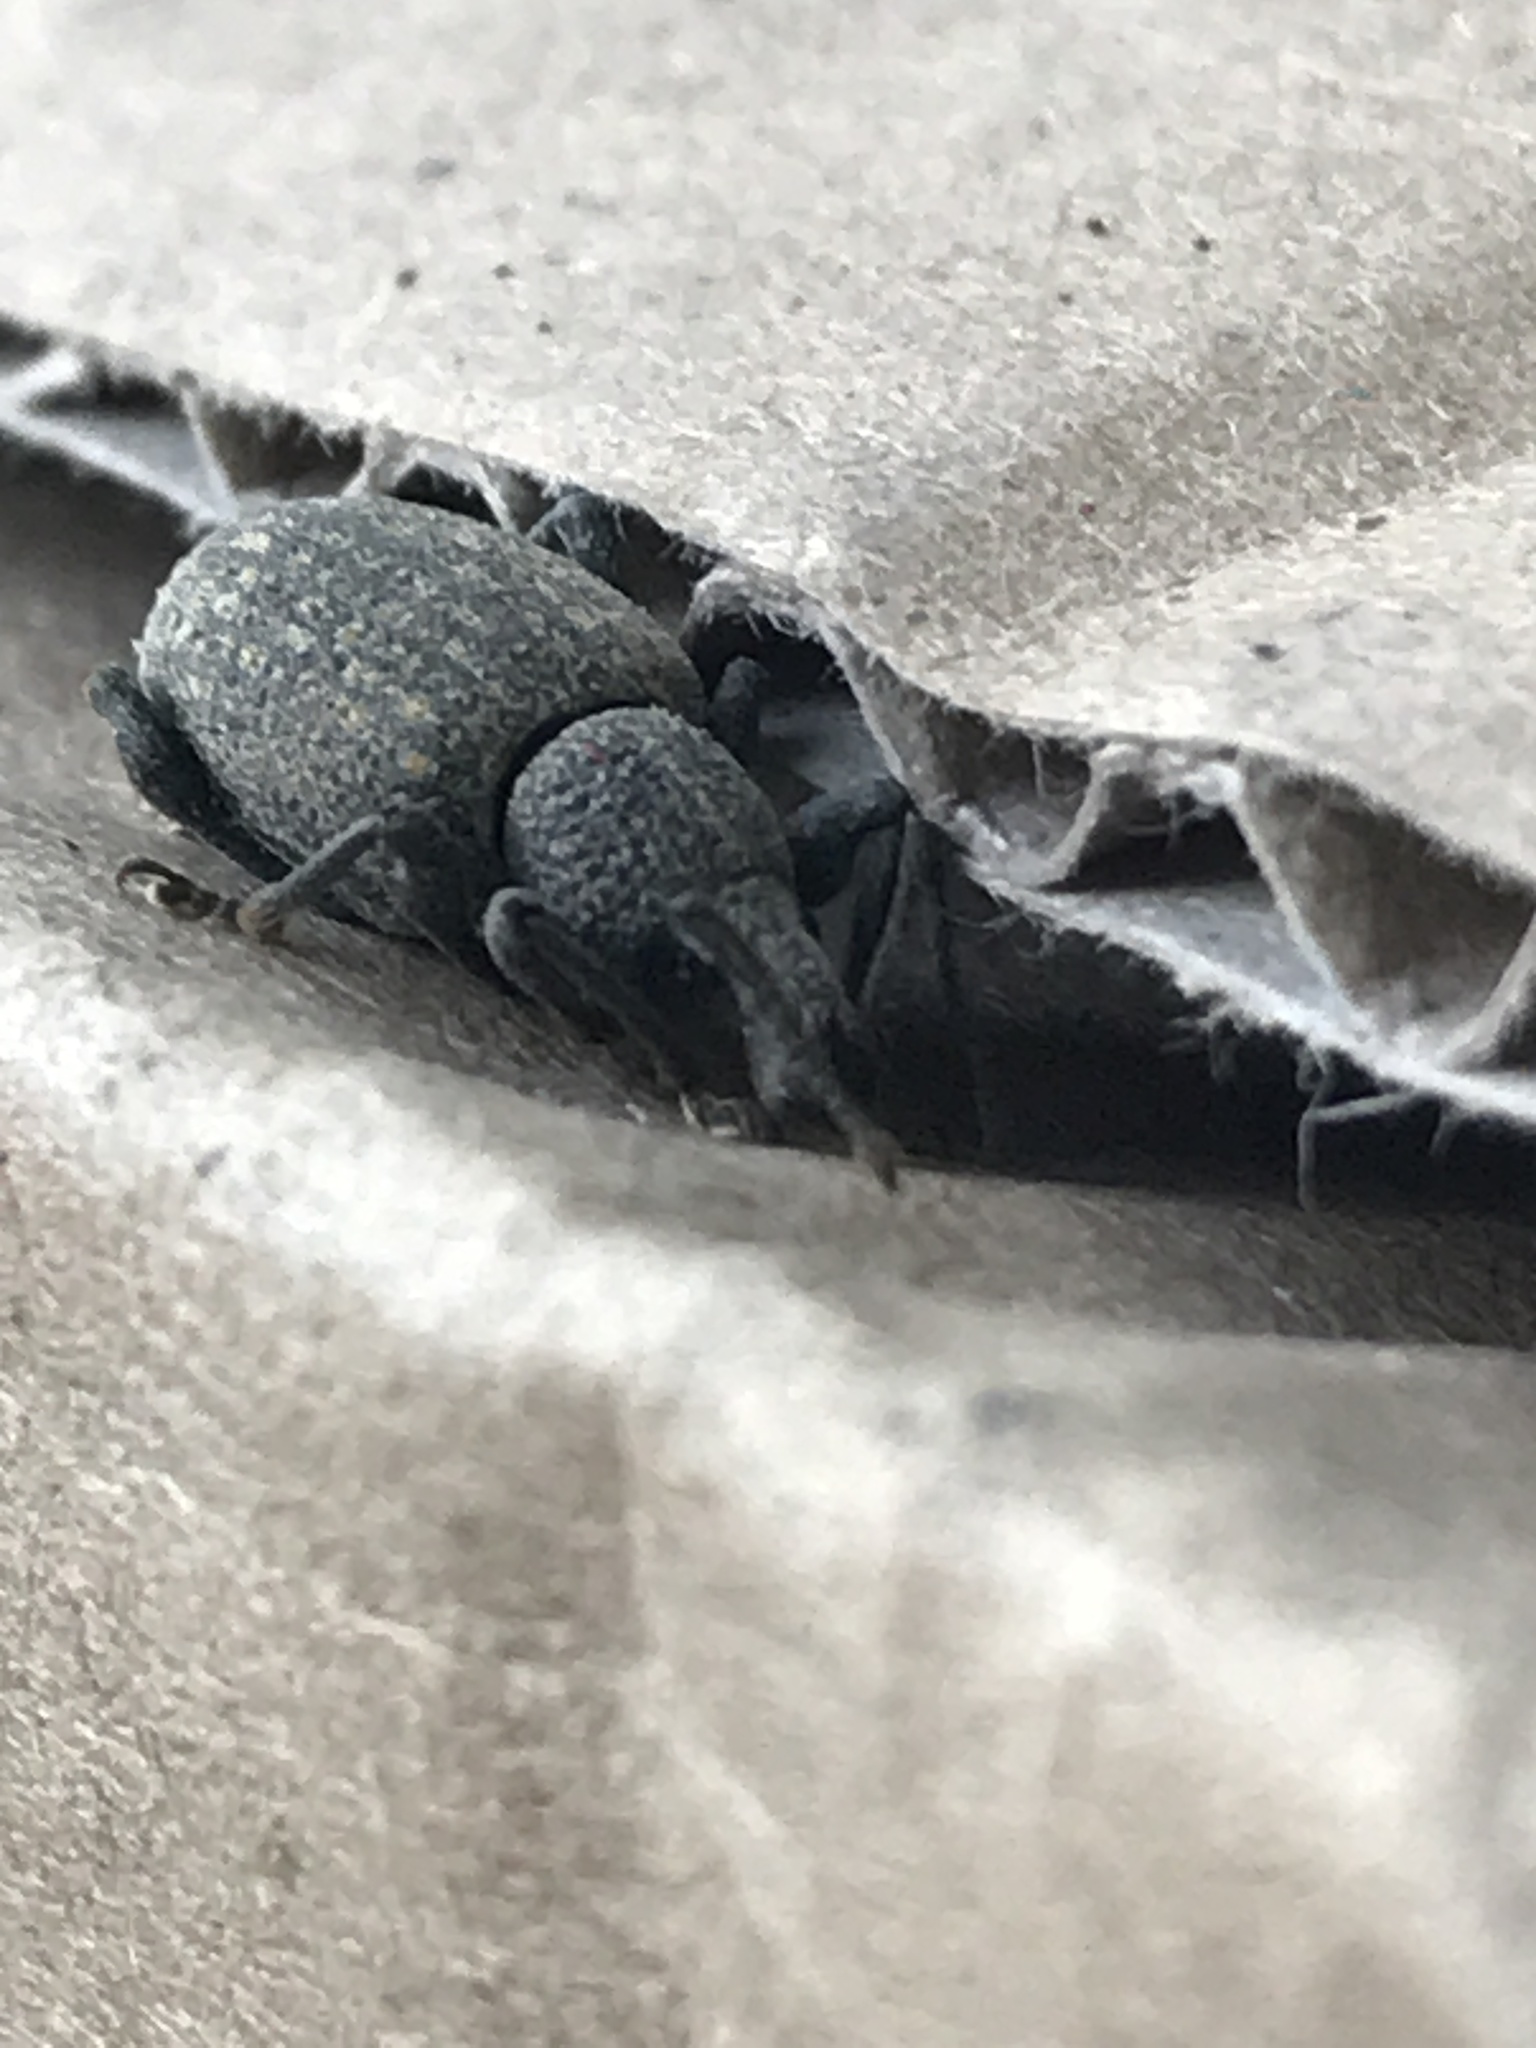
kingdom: Animalia
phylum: Arthropoda
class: Insecta
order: Coleoptera
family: Curculionidae
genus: Otiorhynchus
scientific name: Otiorhynchus sulcatus
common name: Black vine weevil
